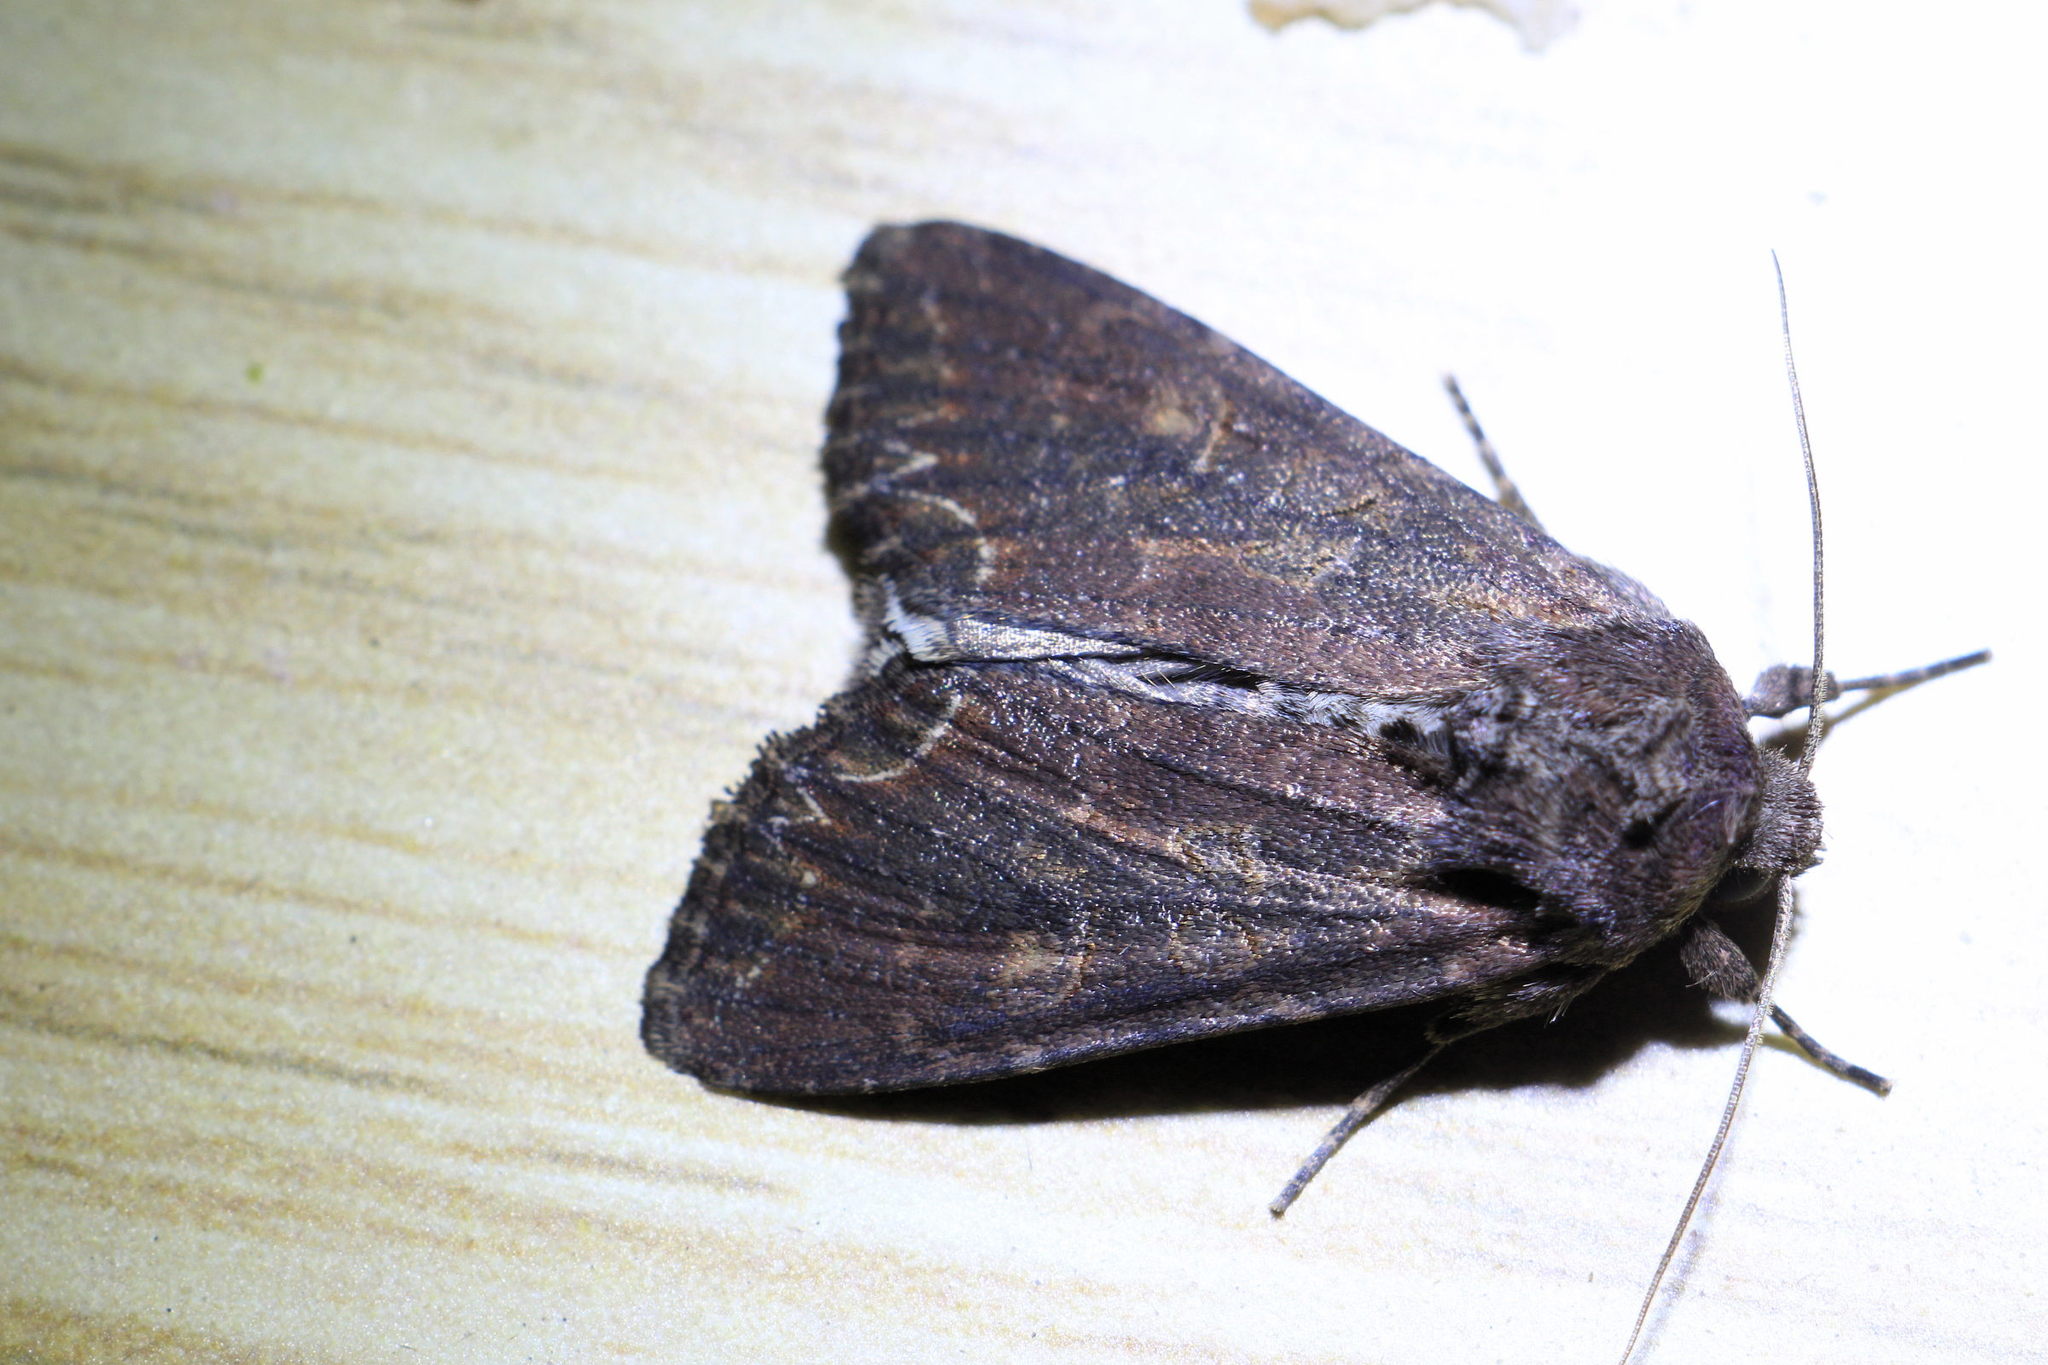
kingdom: Animalia
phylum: Arthropoda
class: Insecta
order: Lepidoptera
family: Noctuidae
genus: Lacanobia
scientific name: Lacanobia suasa
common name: Dog's tooth
